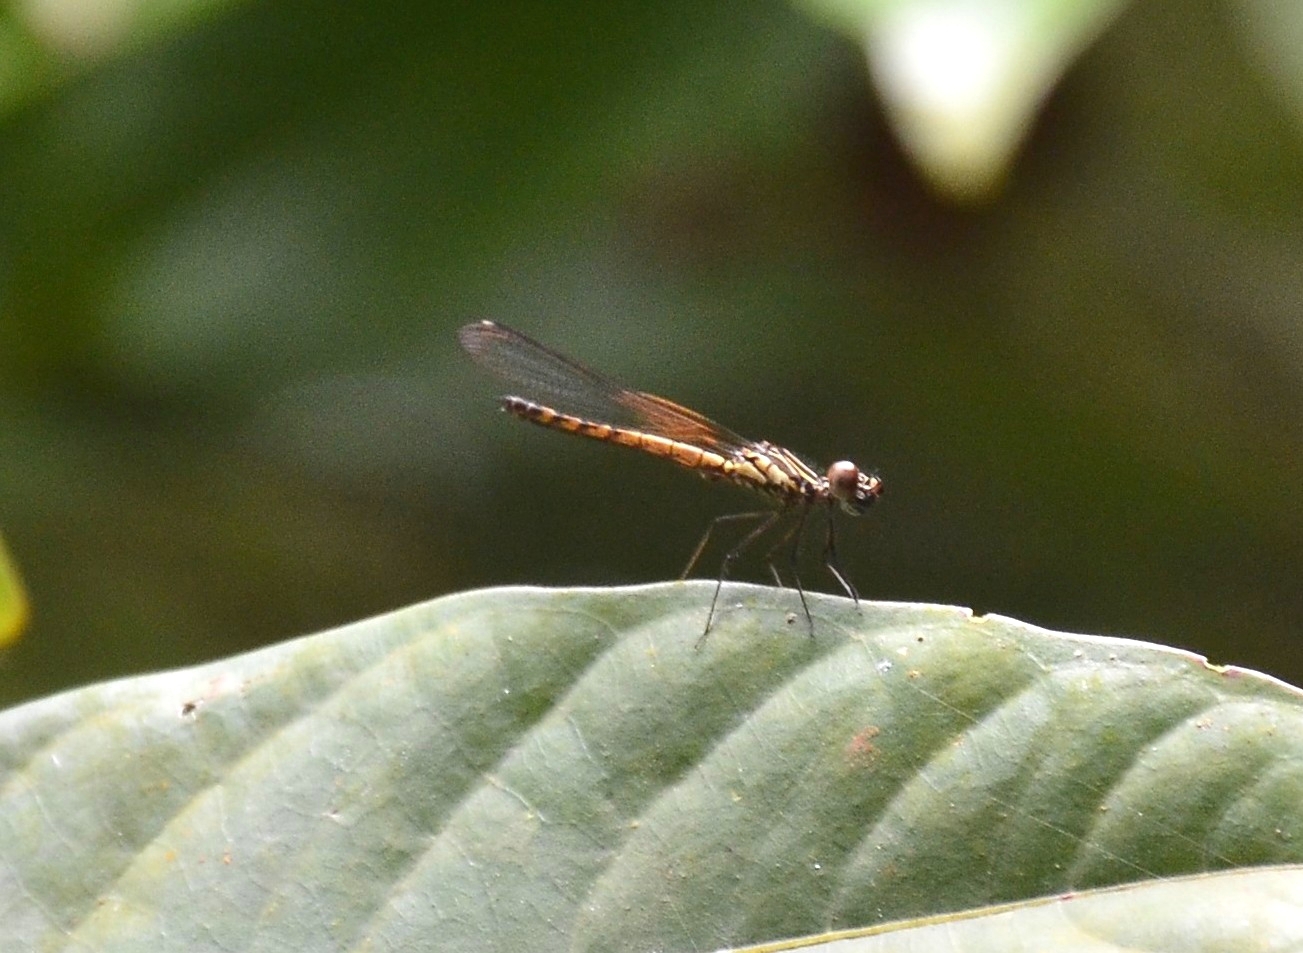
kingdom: Animalia
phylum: Arthropoda
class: Insecta
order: Odonata
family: Chlorocyphidae
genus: Libellago
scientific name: Libellago indica
